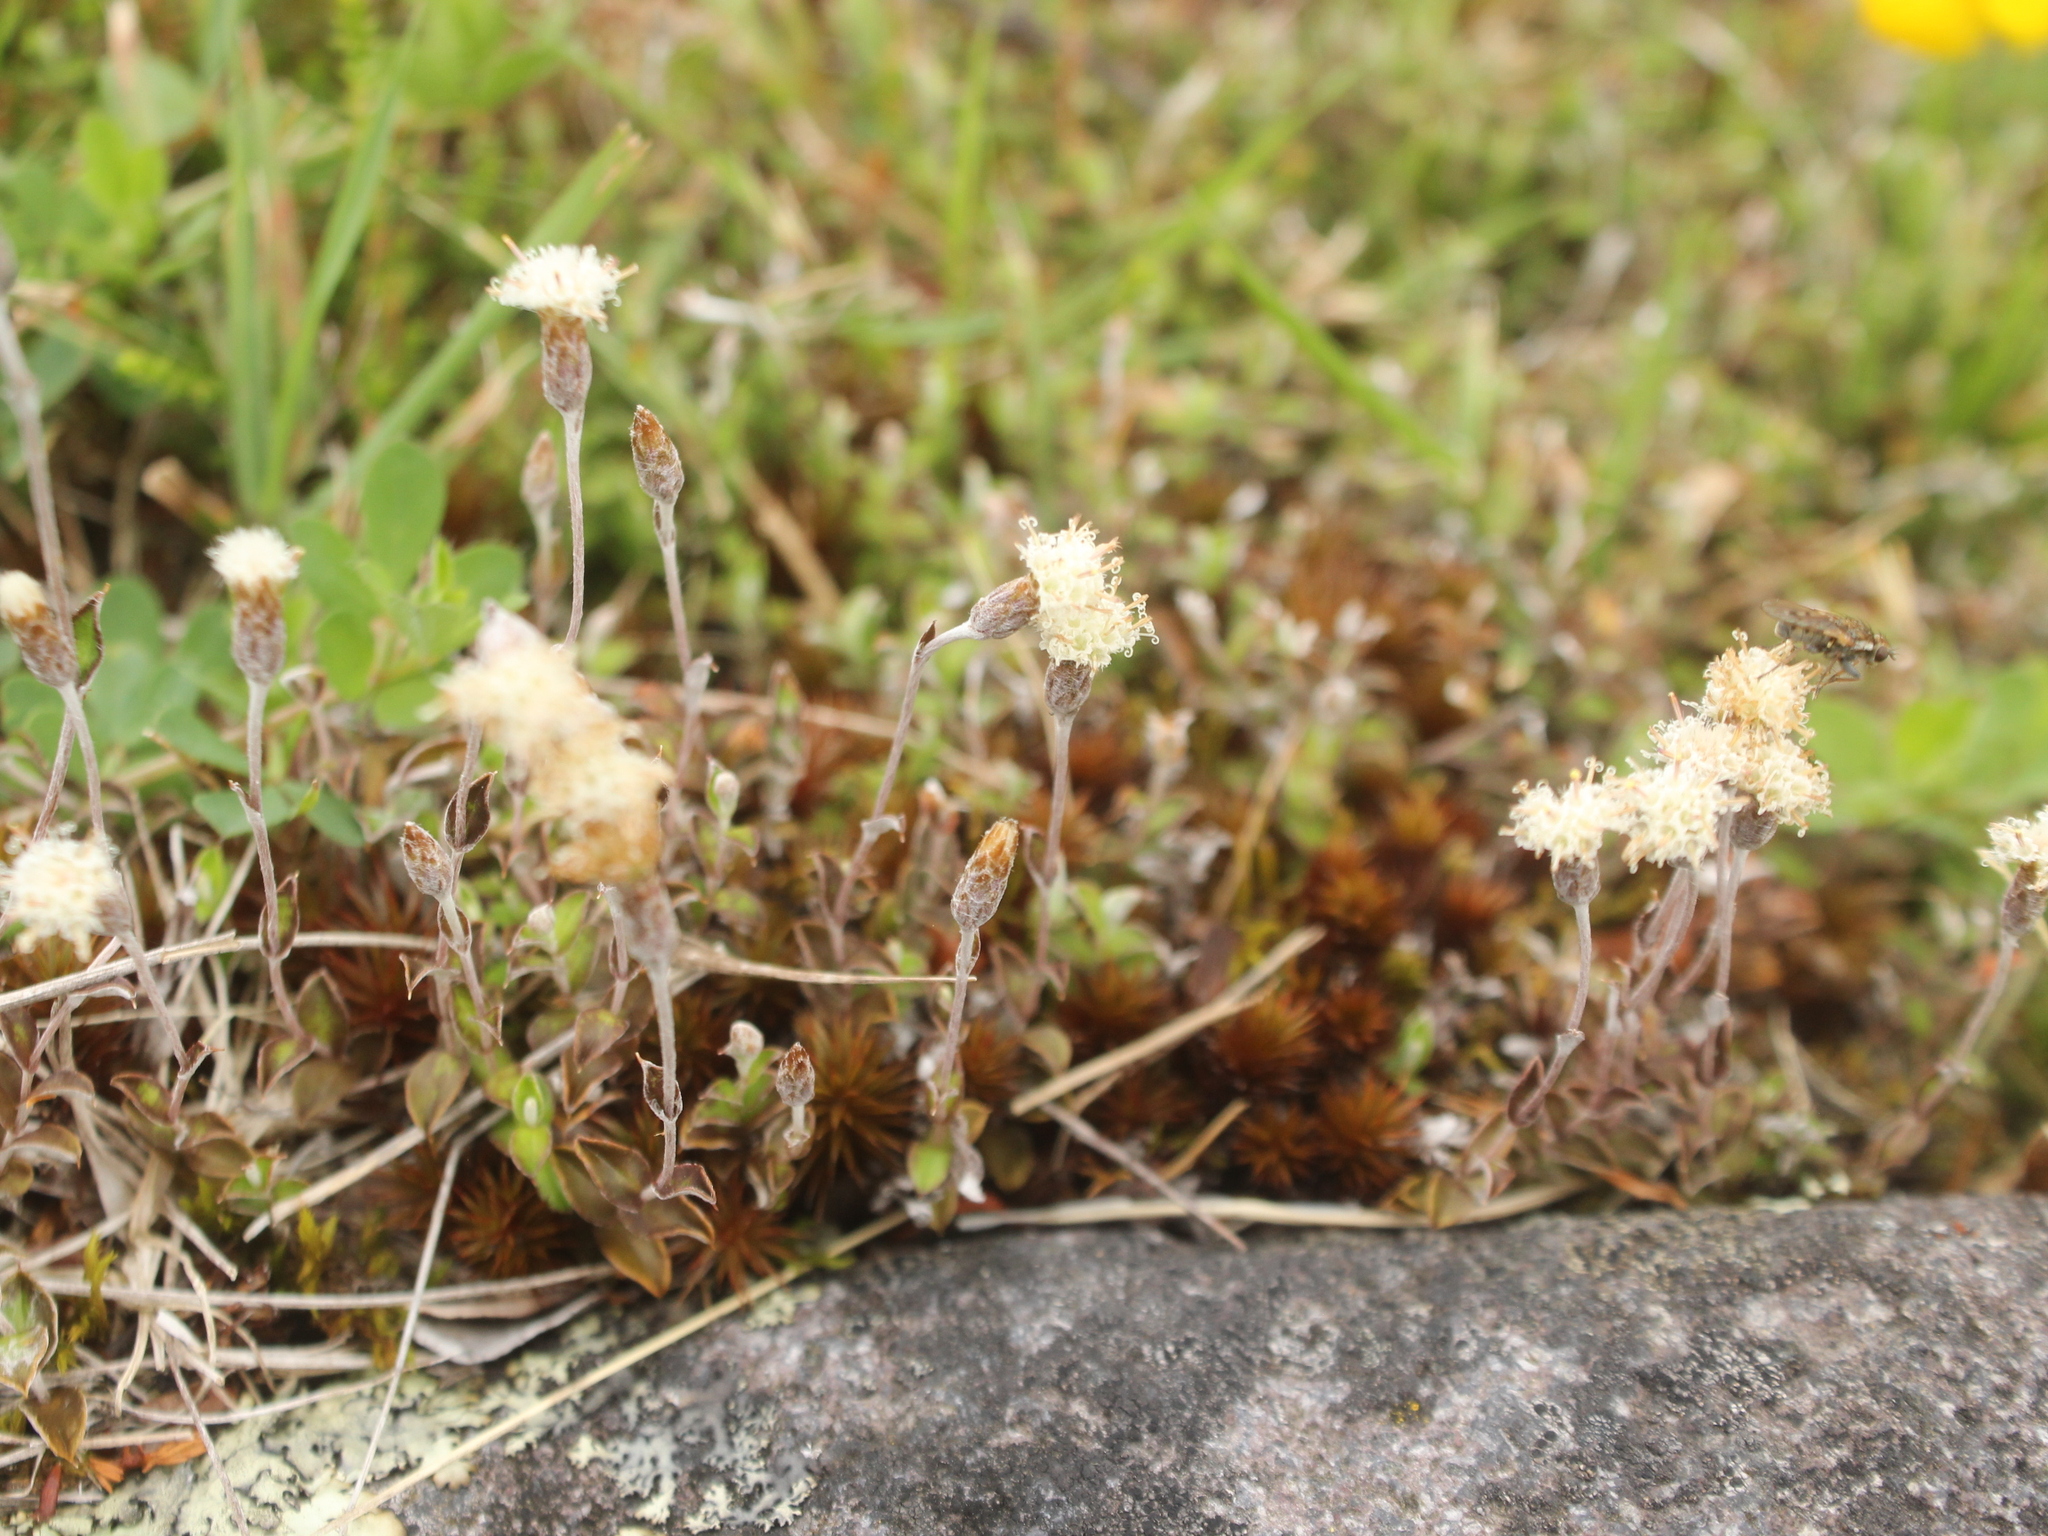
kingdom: Plantae
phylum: Tracheophyta
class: Magnoliopsida
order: Asterales
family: Asteraceae
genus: Helichrysum
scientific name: Helichrysum filicaule
